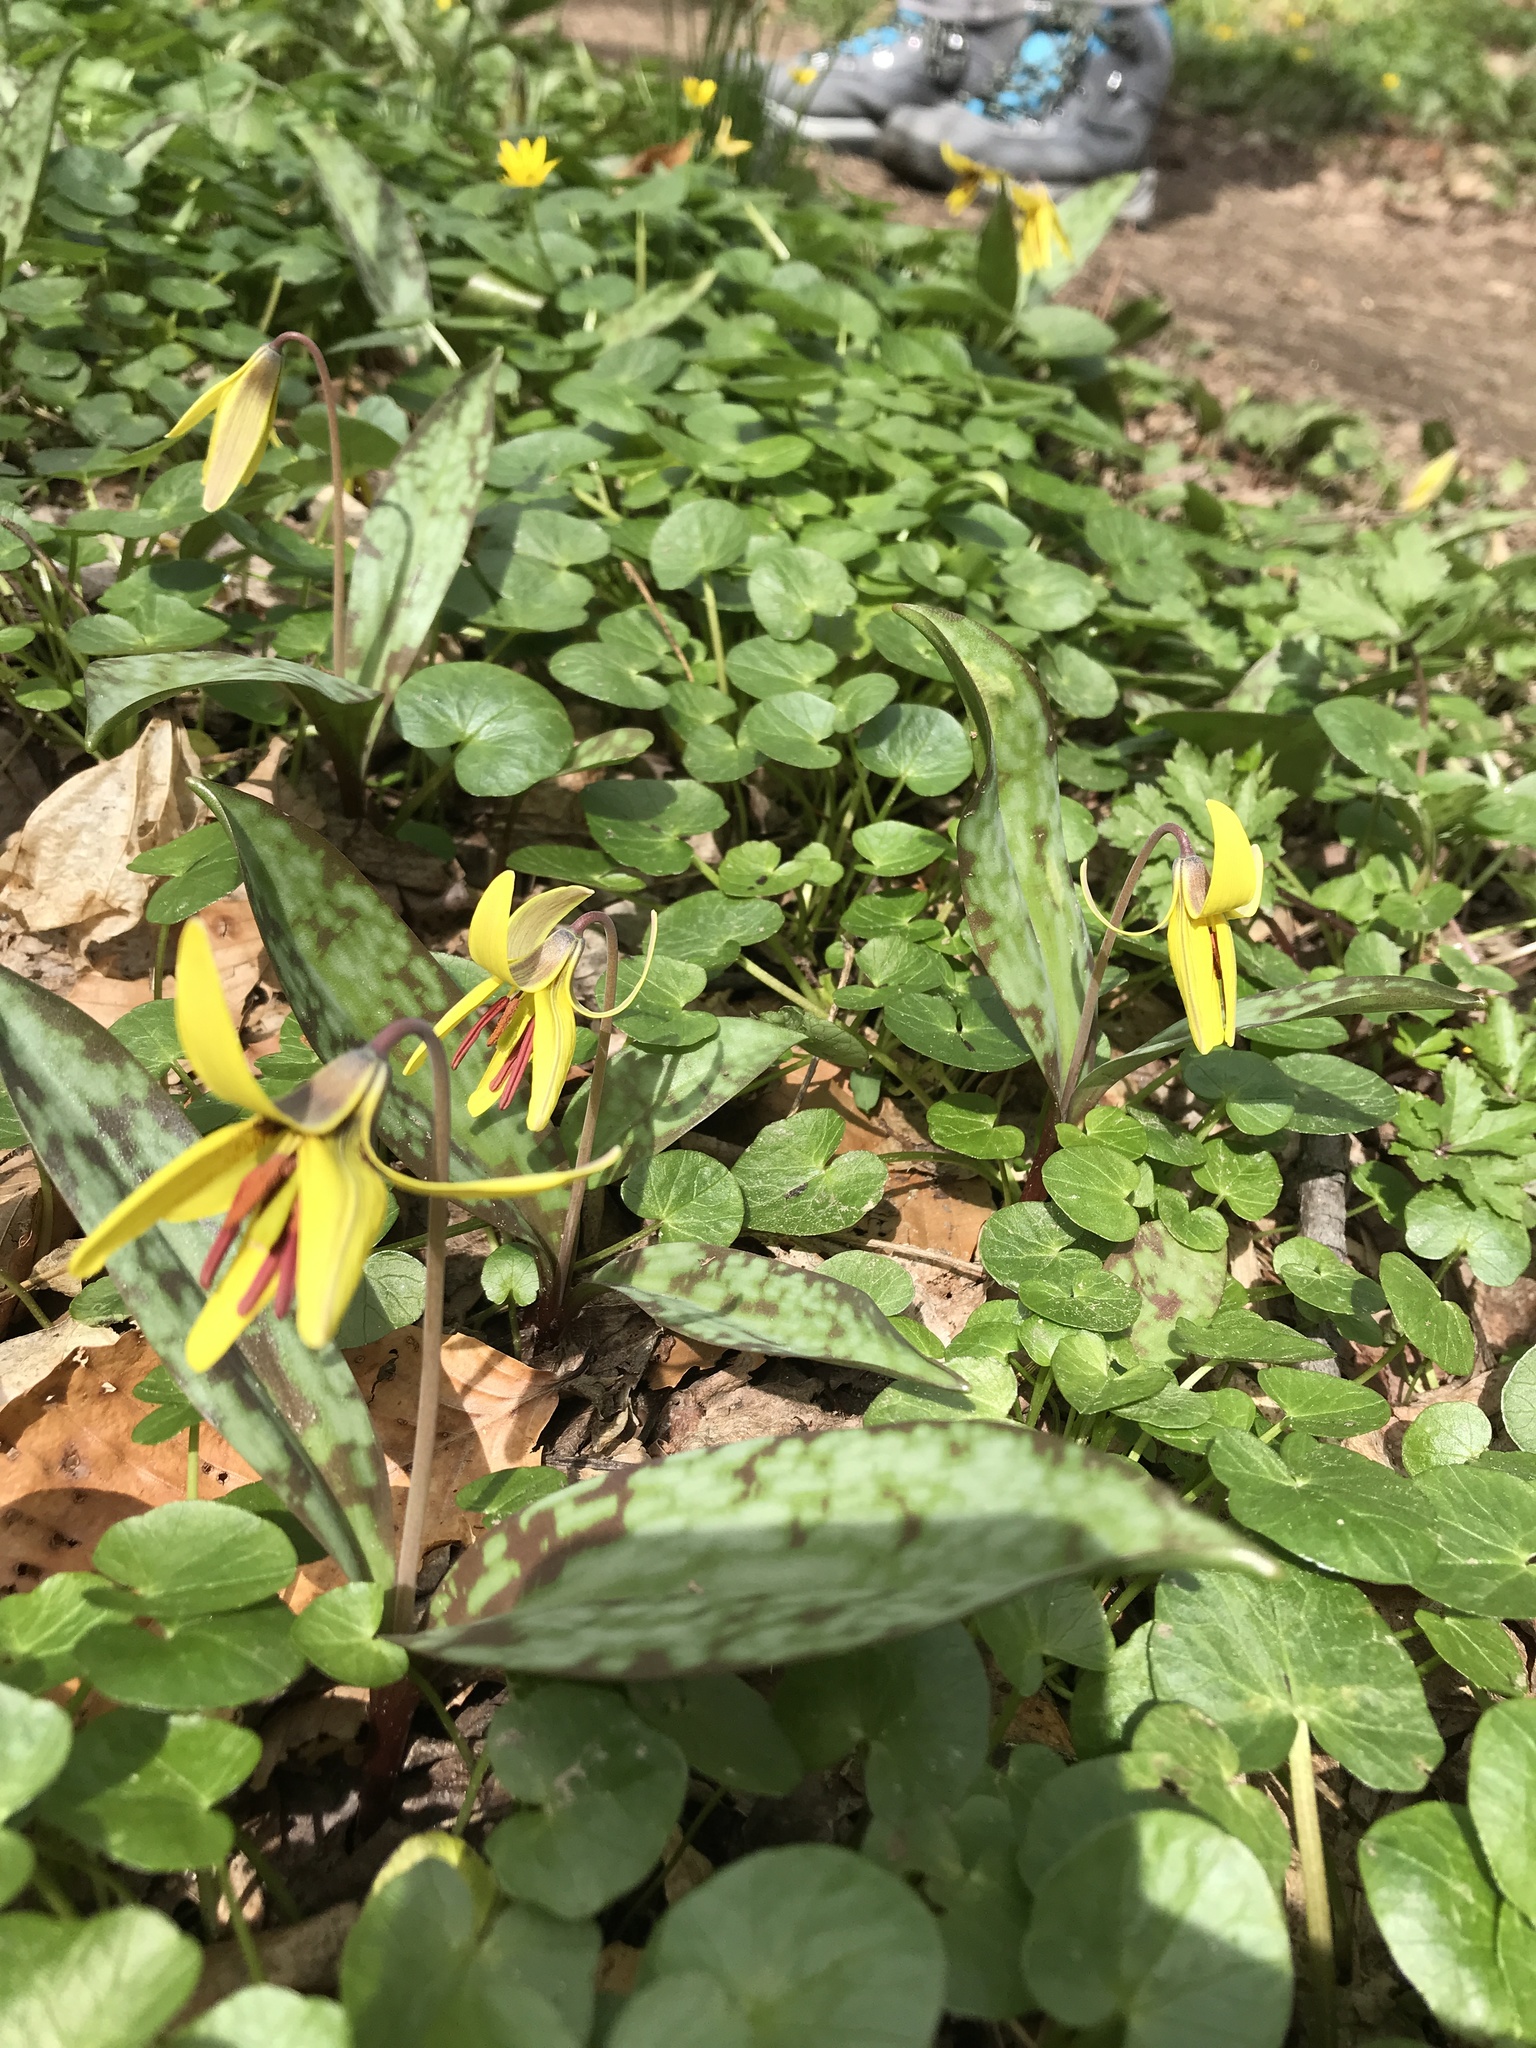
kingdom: Plantae
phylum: Tracheophyta
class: Liliopsida
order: Liliales
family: Liliaceae
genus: Erythronium
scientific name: Erythronium americanum
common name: Yellow adder's-tongue
